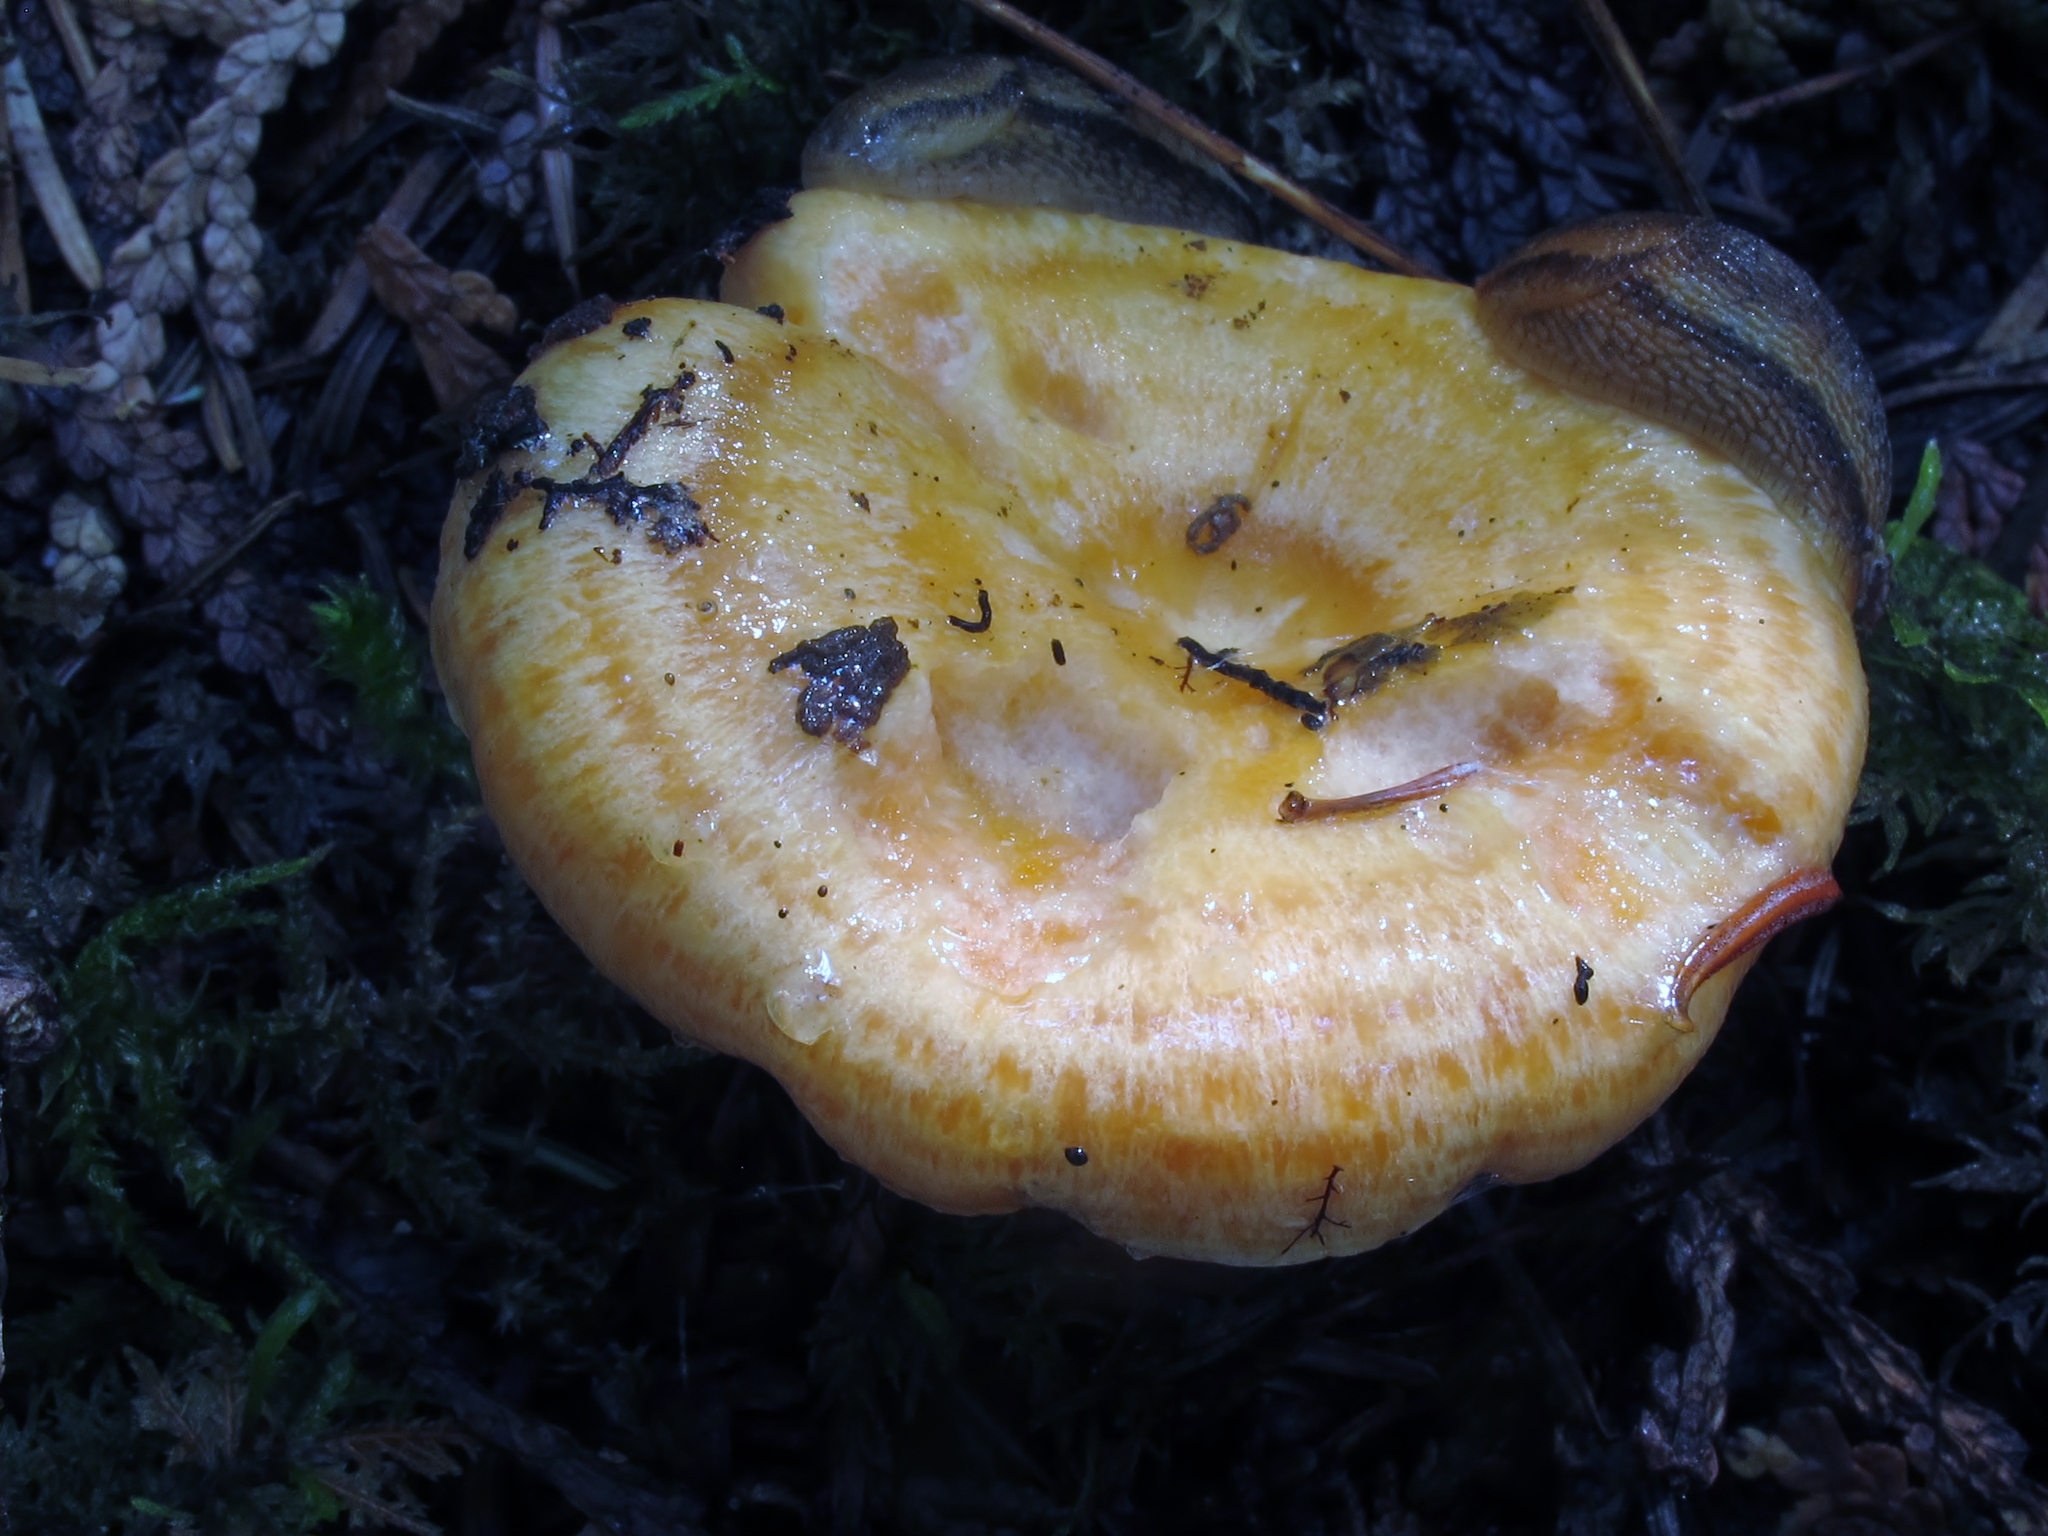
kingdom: Fungi
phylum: Basidiomycota
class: Agaricomycetes
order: Russulales
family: Russulaceae
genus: Lactarius
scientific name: Lactarius salmonicolor
